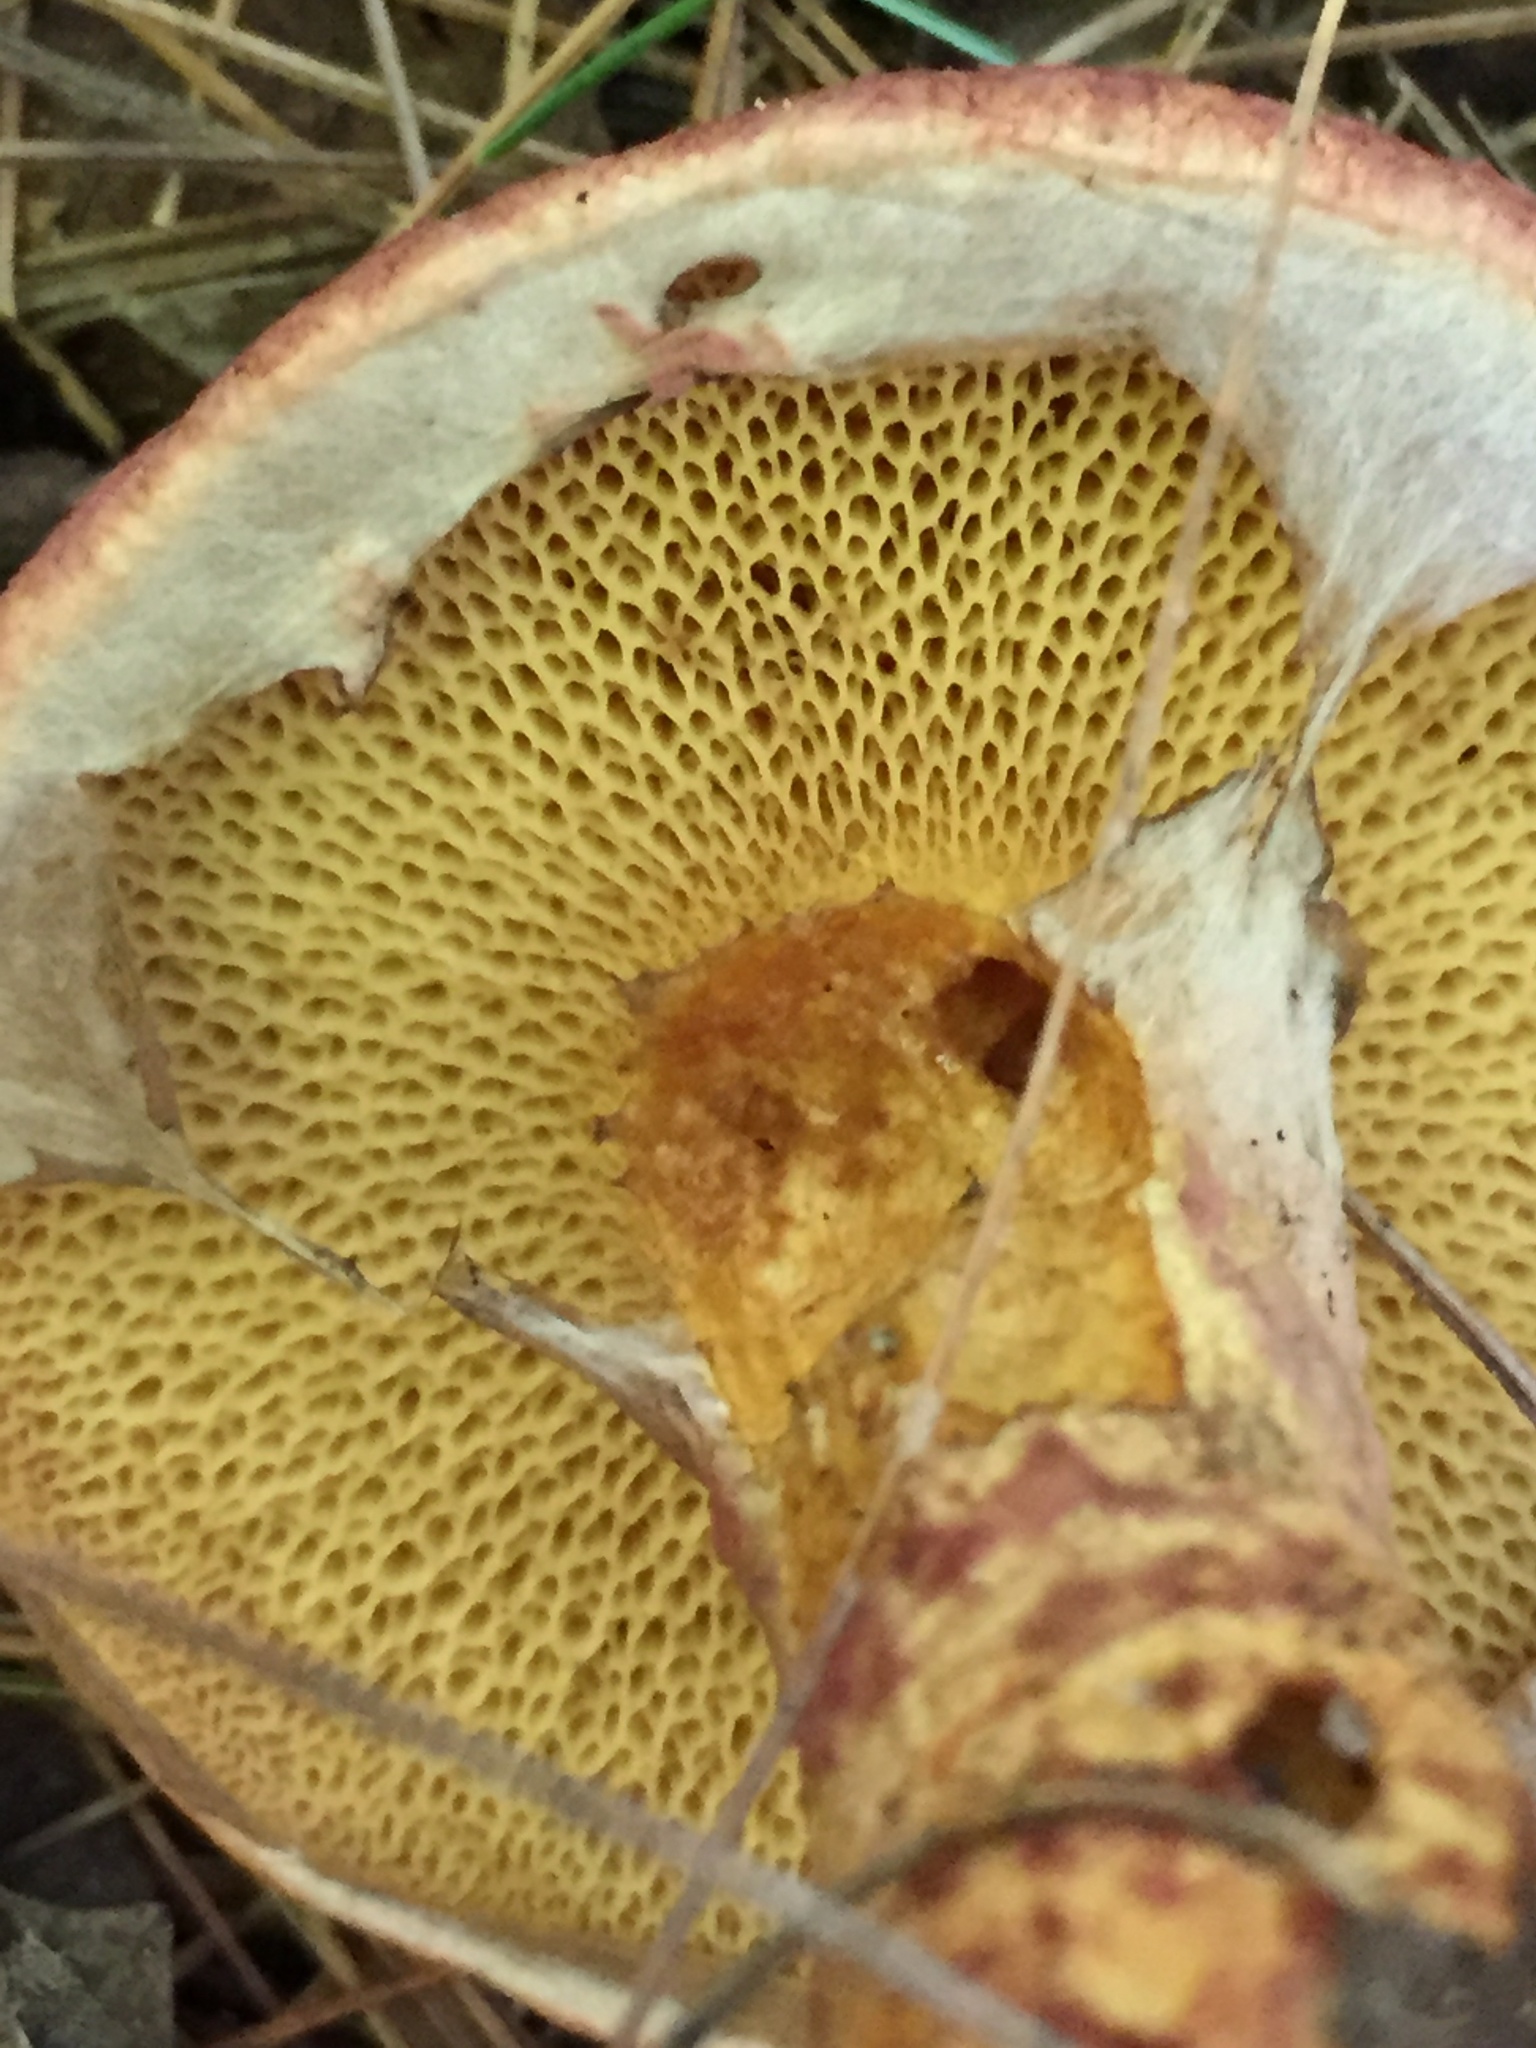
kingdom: Fungi
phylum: Basidiomycota
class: Agaricomycetes
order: Boletales
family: Suillaceae
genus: Suillus
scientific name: Suillus spraguei
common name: Painted suillus
